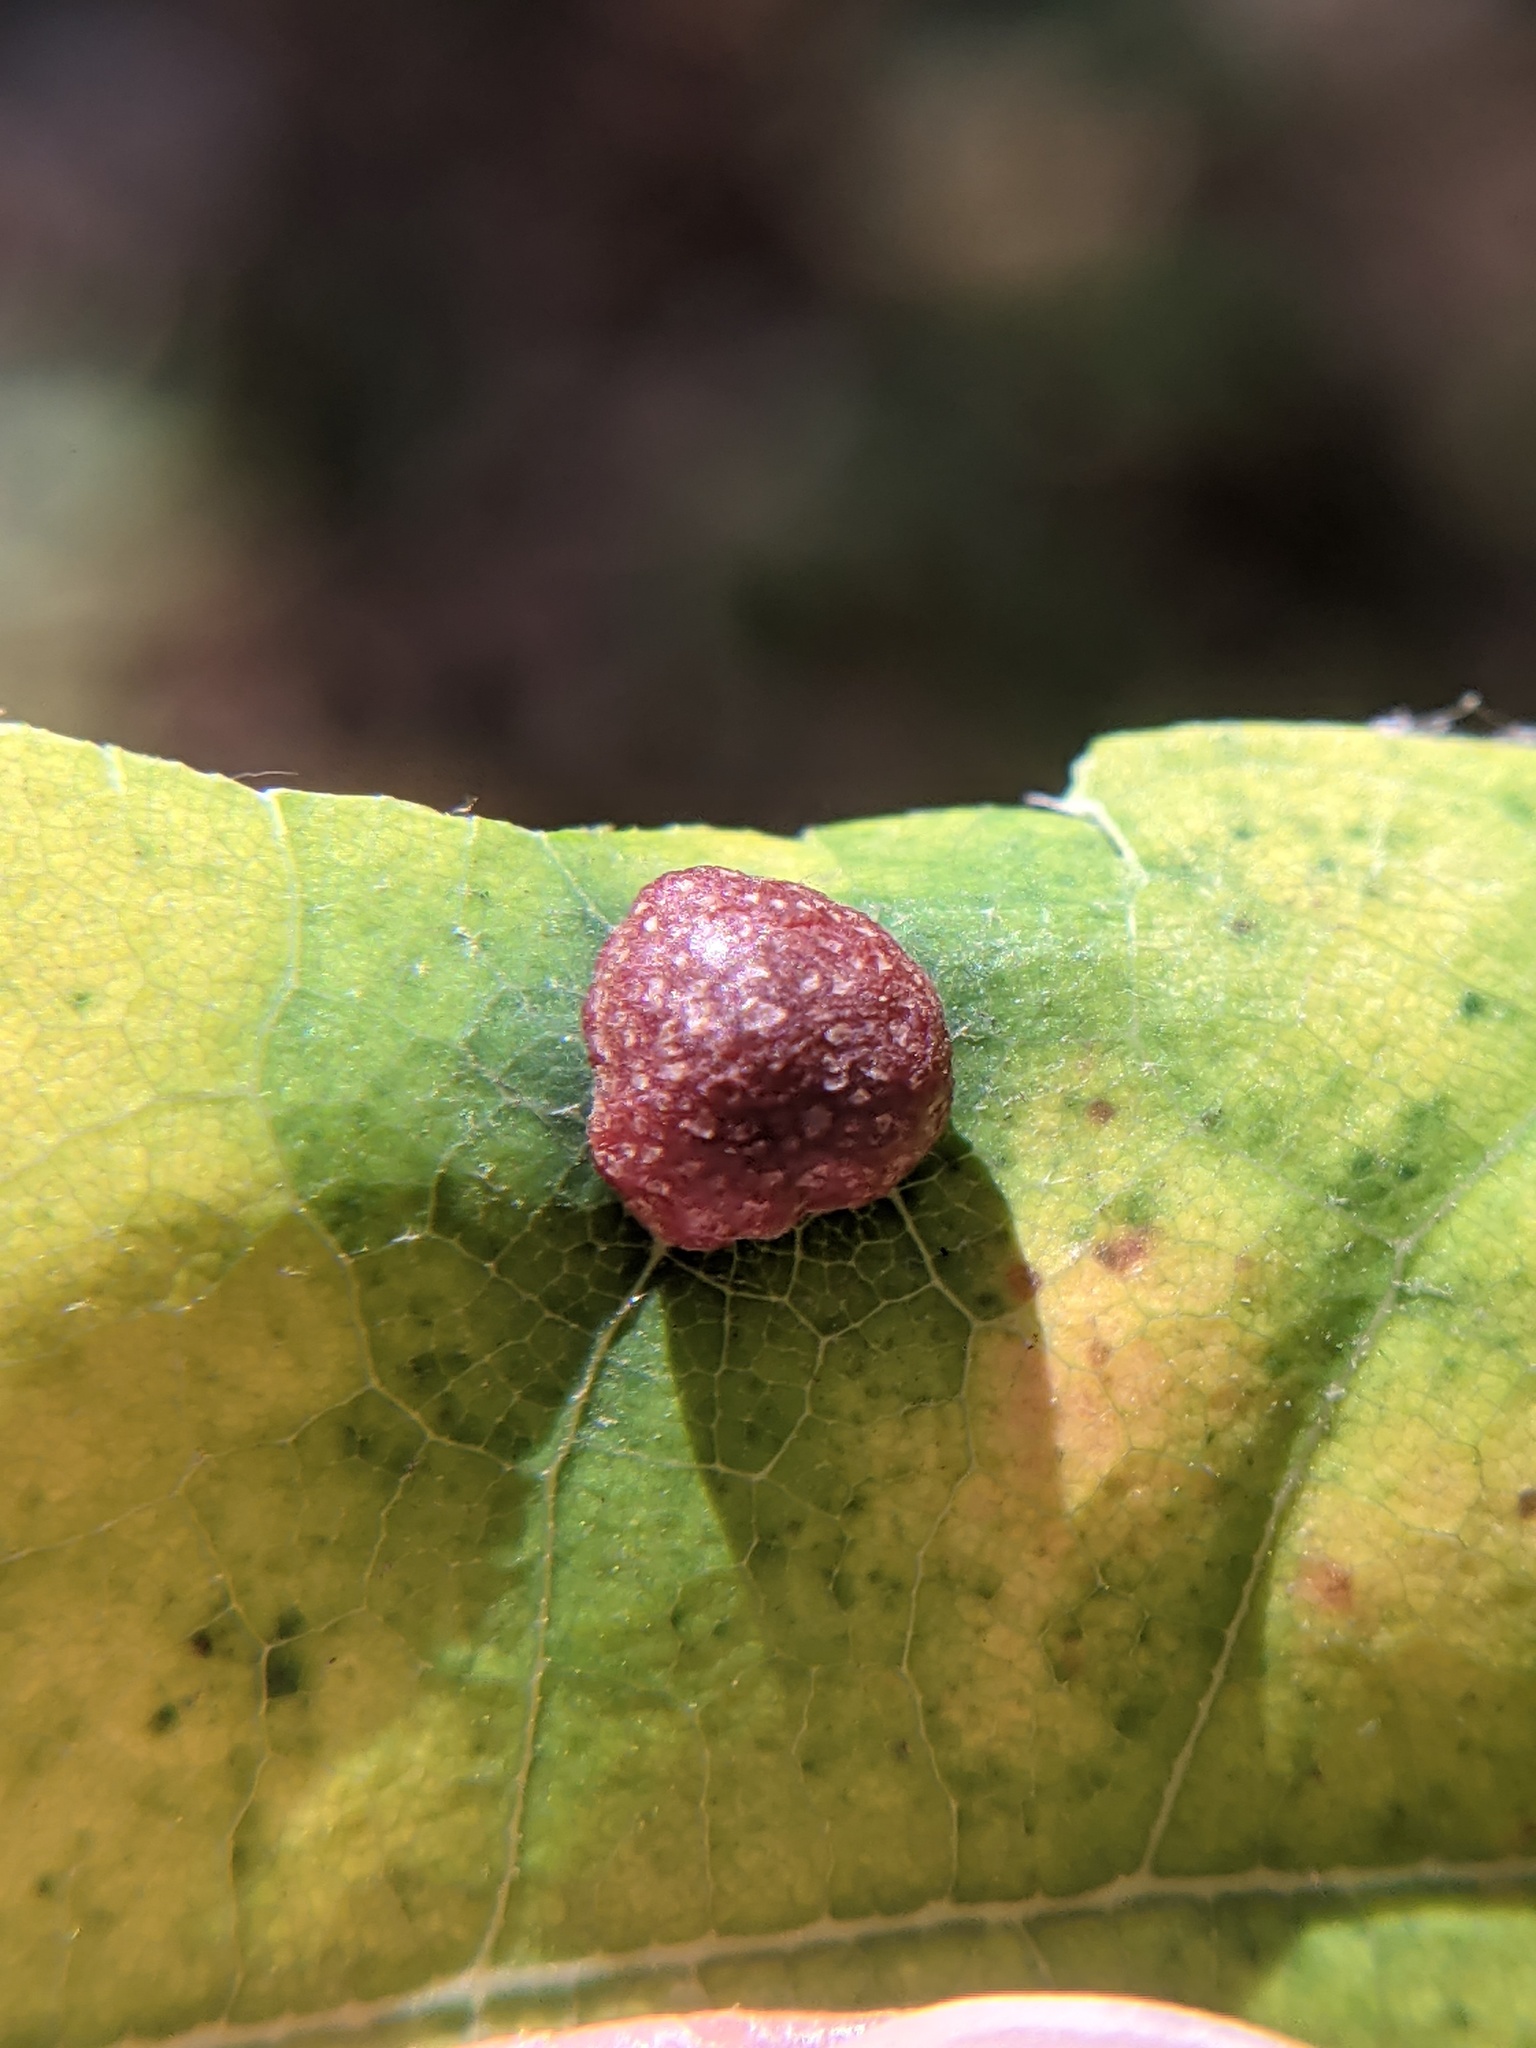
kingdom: Animalia
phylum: Arthropoda
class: Insecta
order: Diptera
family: Cecidomyiidae
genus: Polystepha
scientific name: Polystepha pilulae
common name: Oak leaf gall midge
